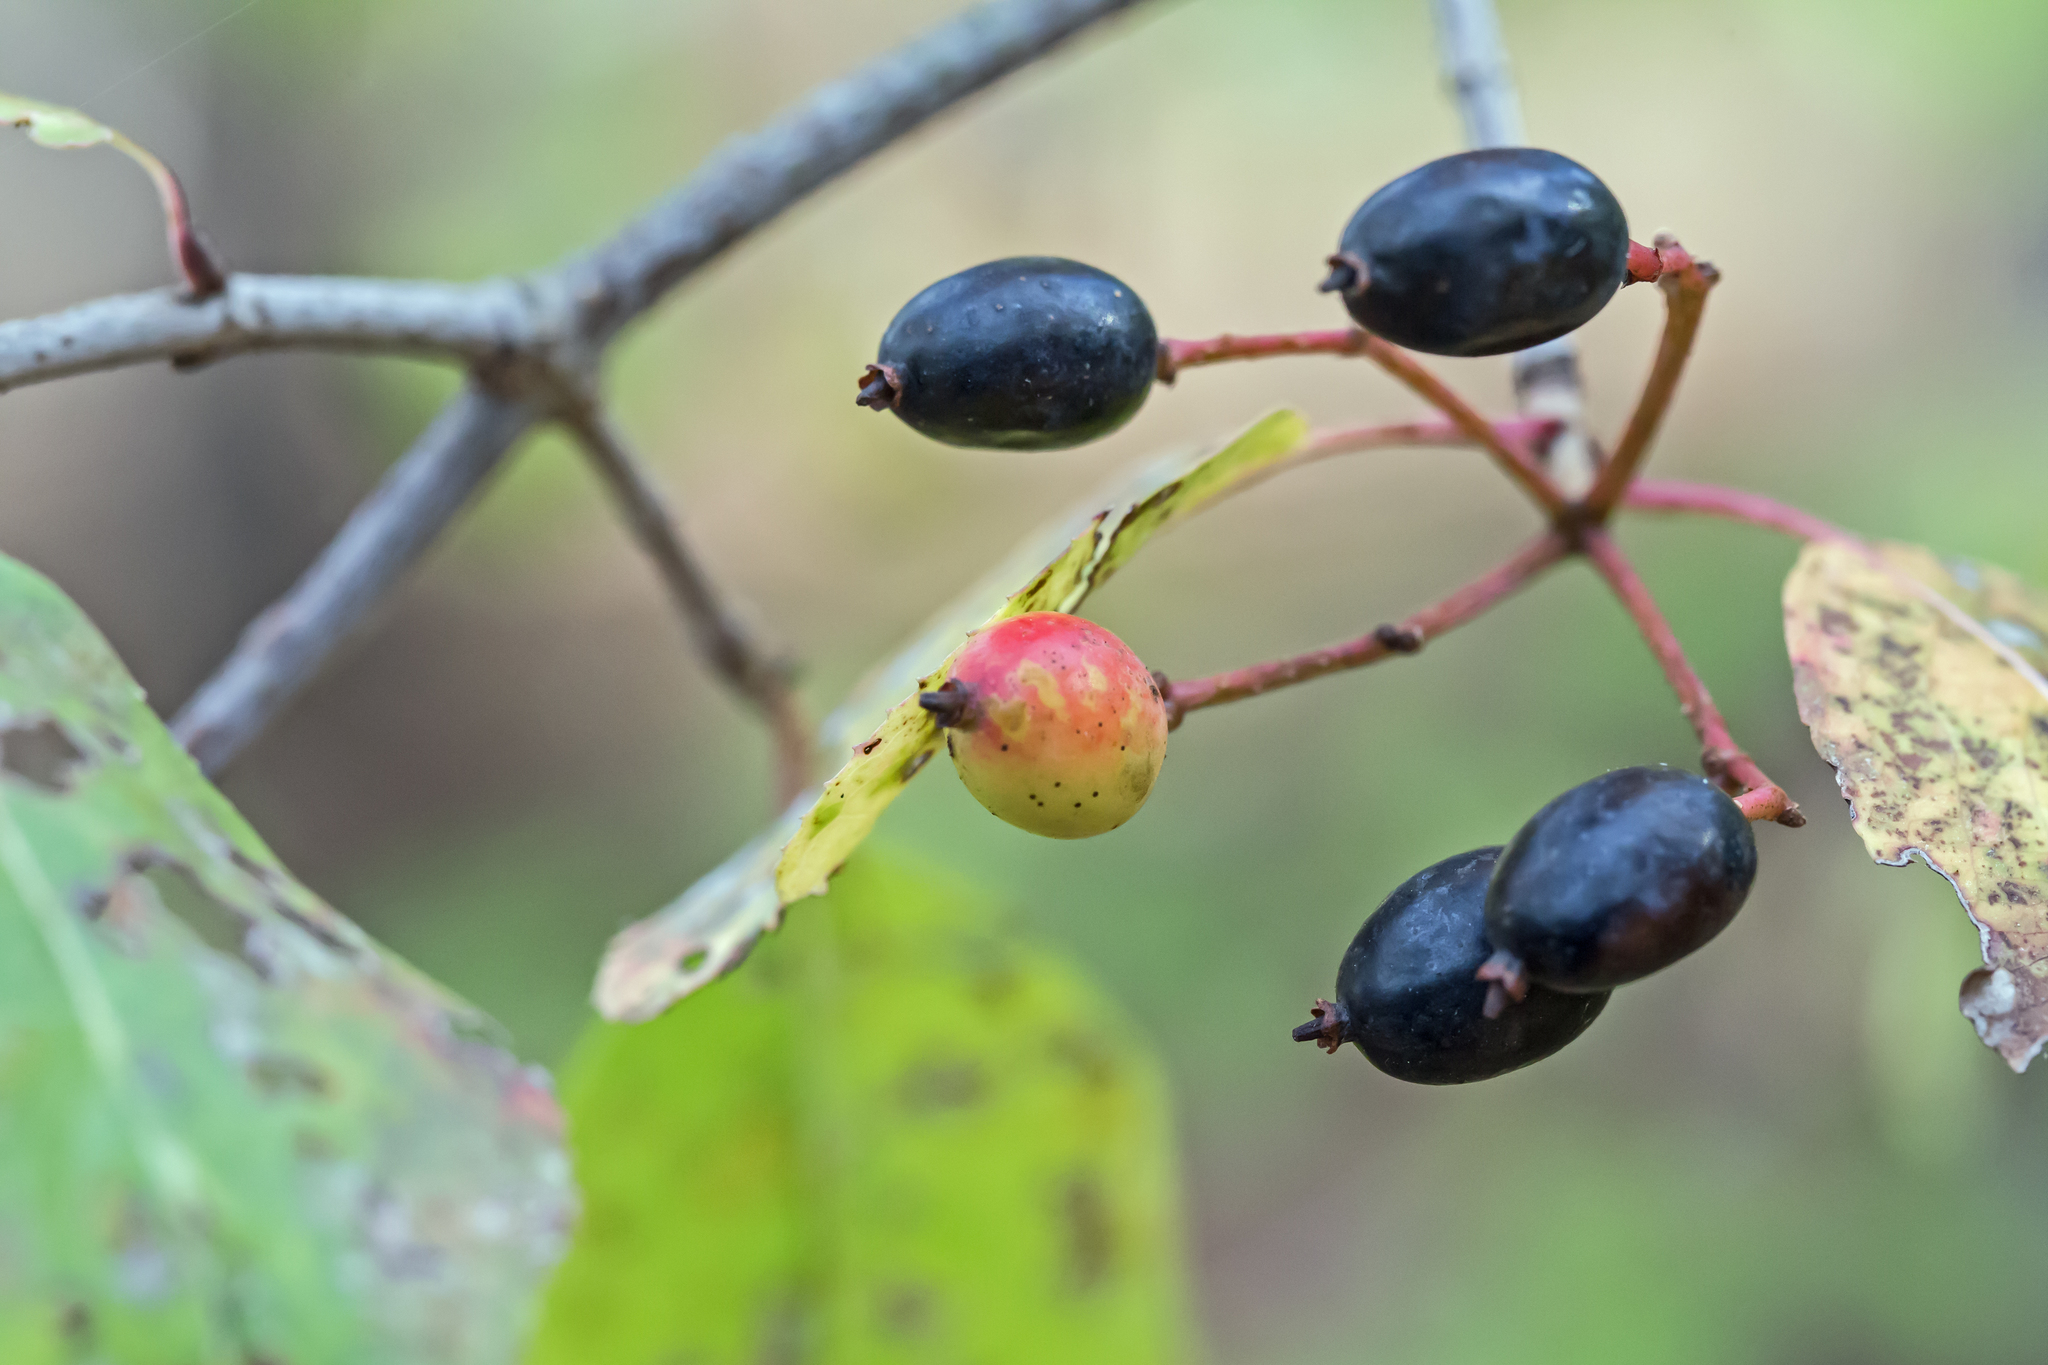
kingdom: Plantae
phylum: Tracheophyta
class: Magnoliopsida
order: Dipsacales
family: Viburnaceae
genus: Viburnum
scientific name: Viburnum prunifolium
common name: Black haw
